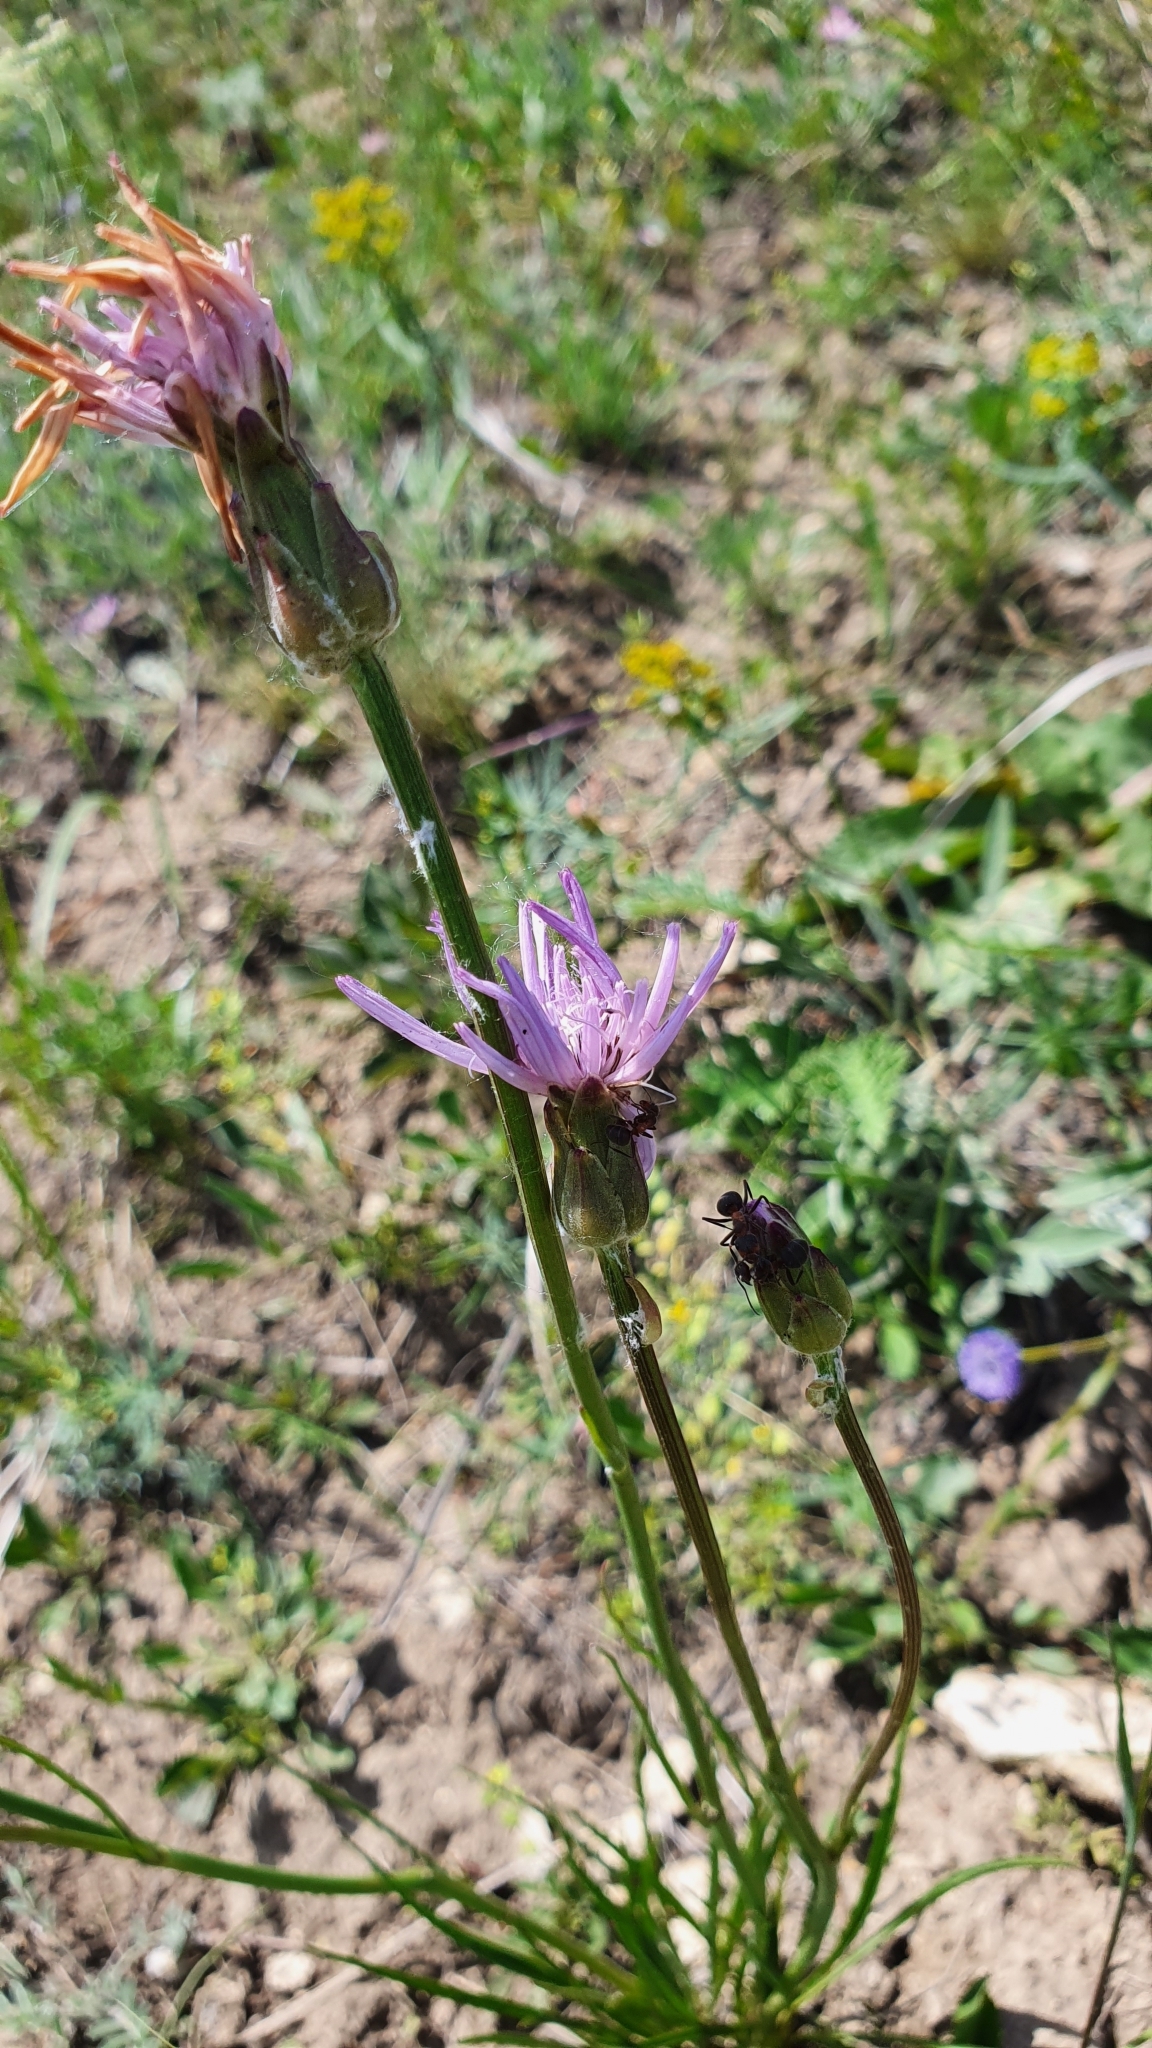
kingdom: Plantae
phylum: Tracheophyta
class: Magnoliopsida
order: Asterales
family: Asteraceae
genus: Scorzonera
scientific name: Scorzonera purpurea
